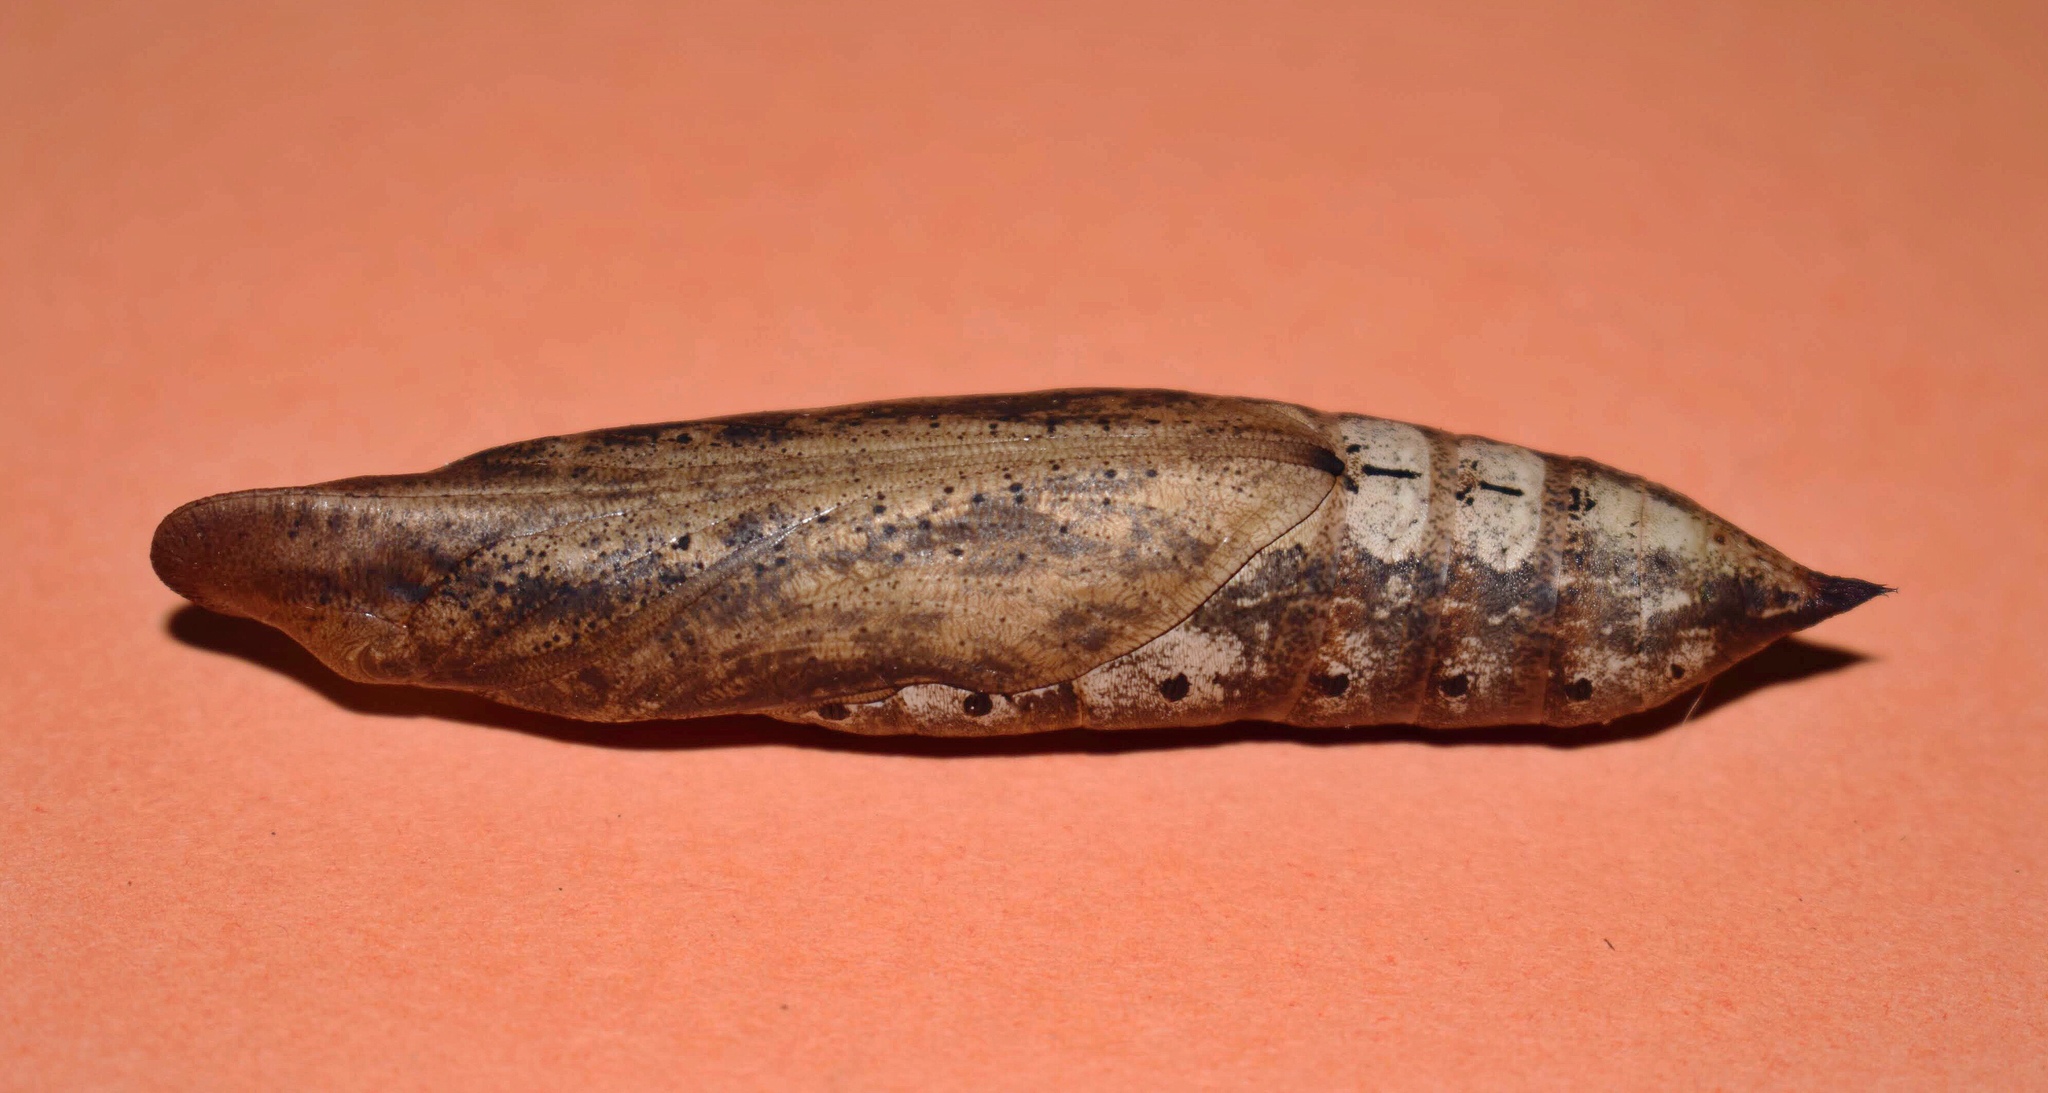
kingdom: Animalia
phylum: Arthropoda
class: Insecta
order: Lepidoptera
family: Sphingidae
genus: Hippotion
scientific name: Hippotion eson
